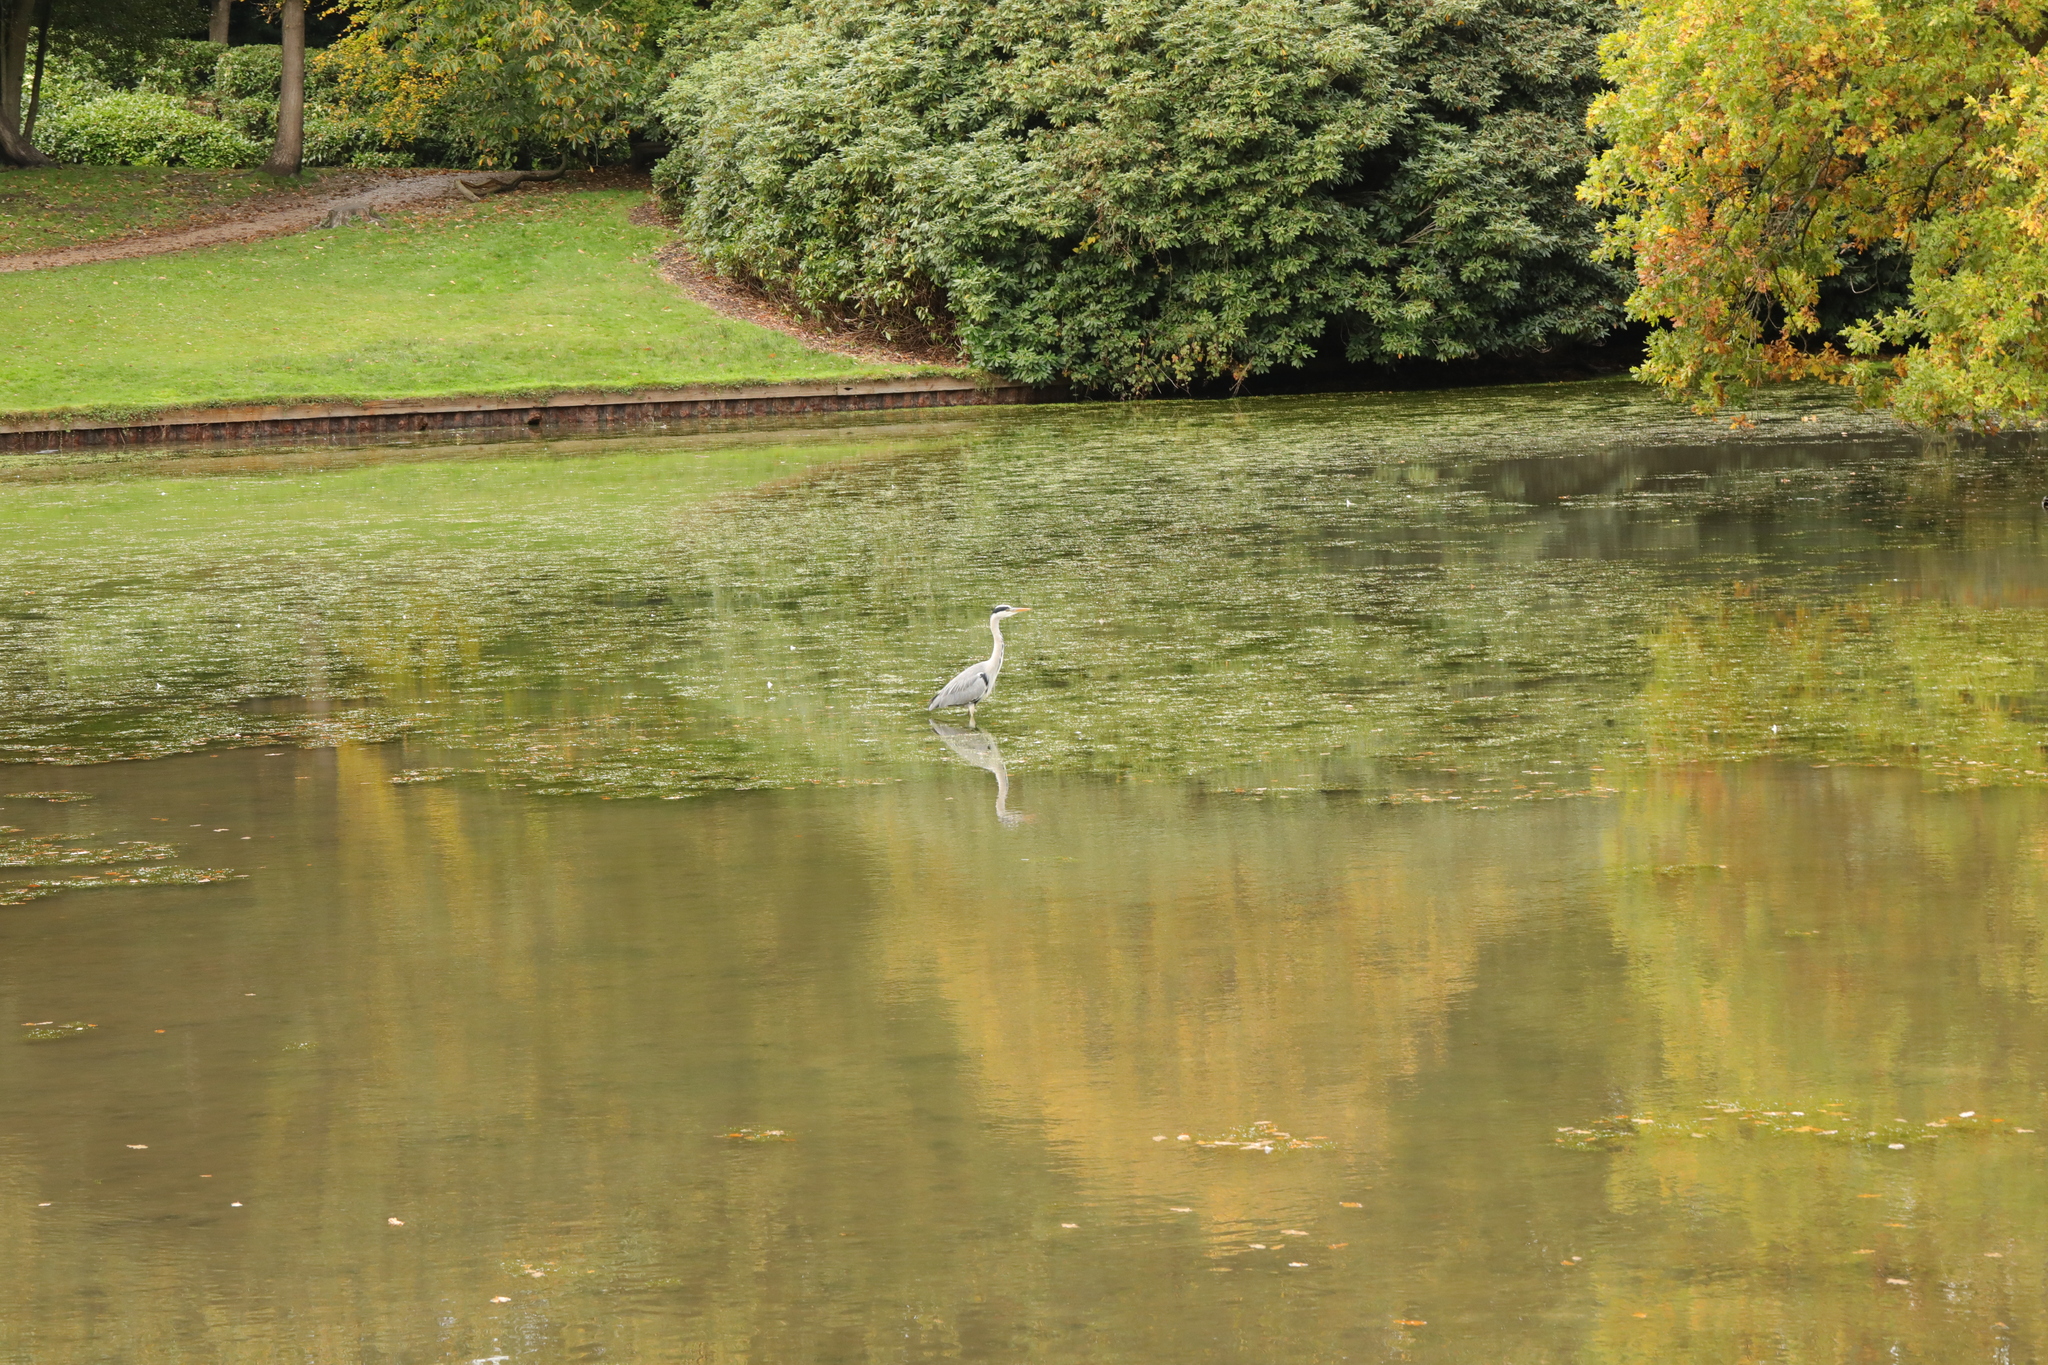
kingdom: Animalia
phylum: Chordata
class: Aves
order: Pelecaniformes
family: Ardeidae
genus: Ardea
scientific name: Ardea cinerea
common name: Grey heron
